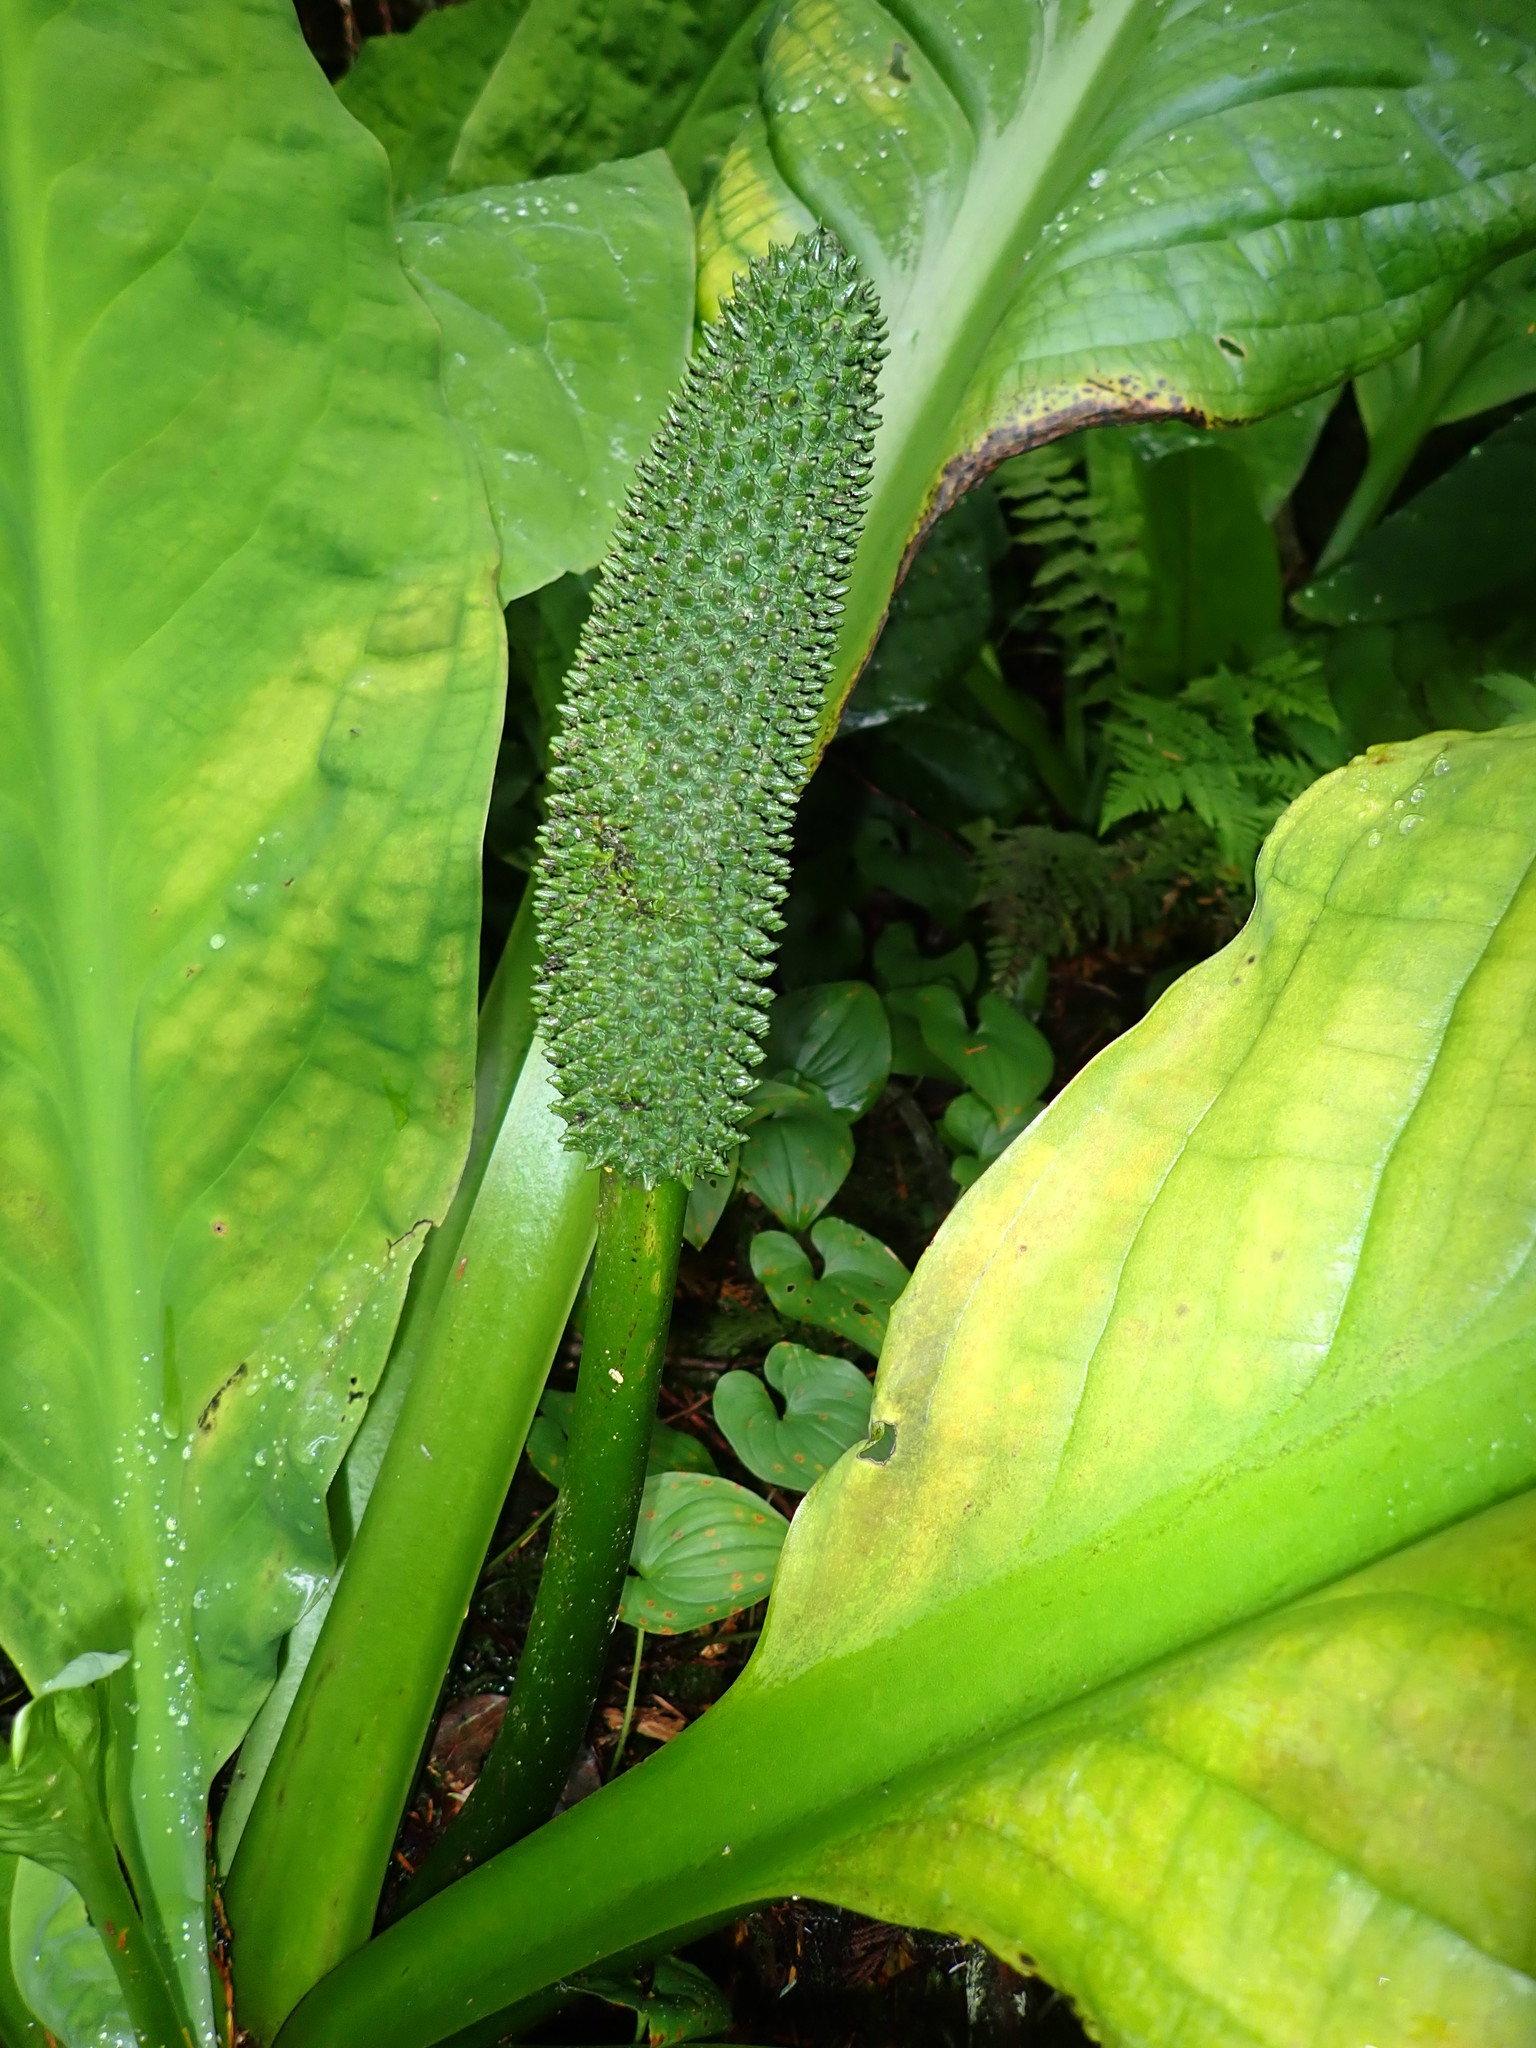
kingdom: Plantae
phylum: Tracheophyta
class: Liliopsida
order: Alismatales
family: Araceae
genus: Lysichiton
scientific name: Lysichiton americanus
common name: American skunk cabbage
